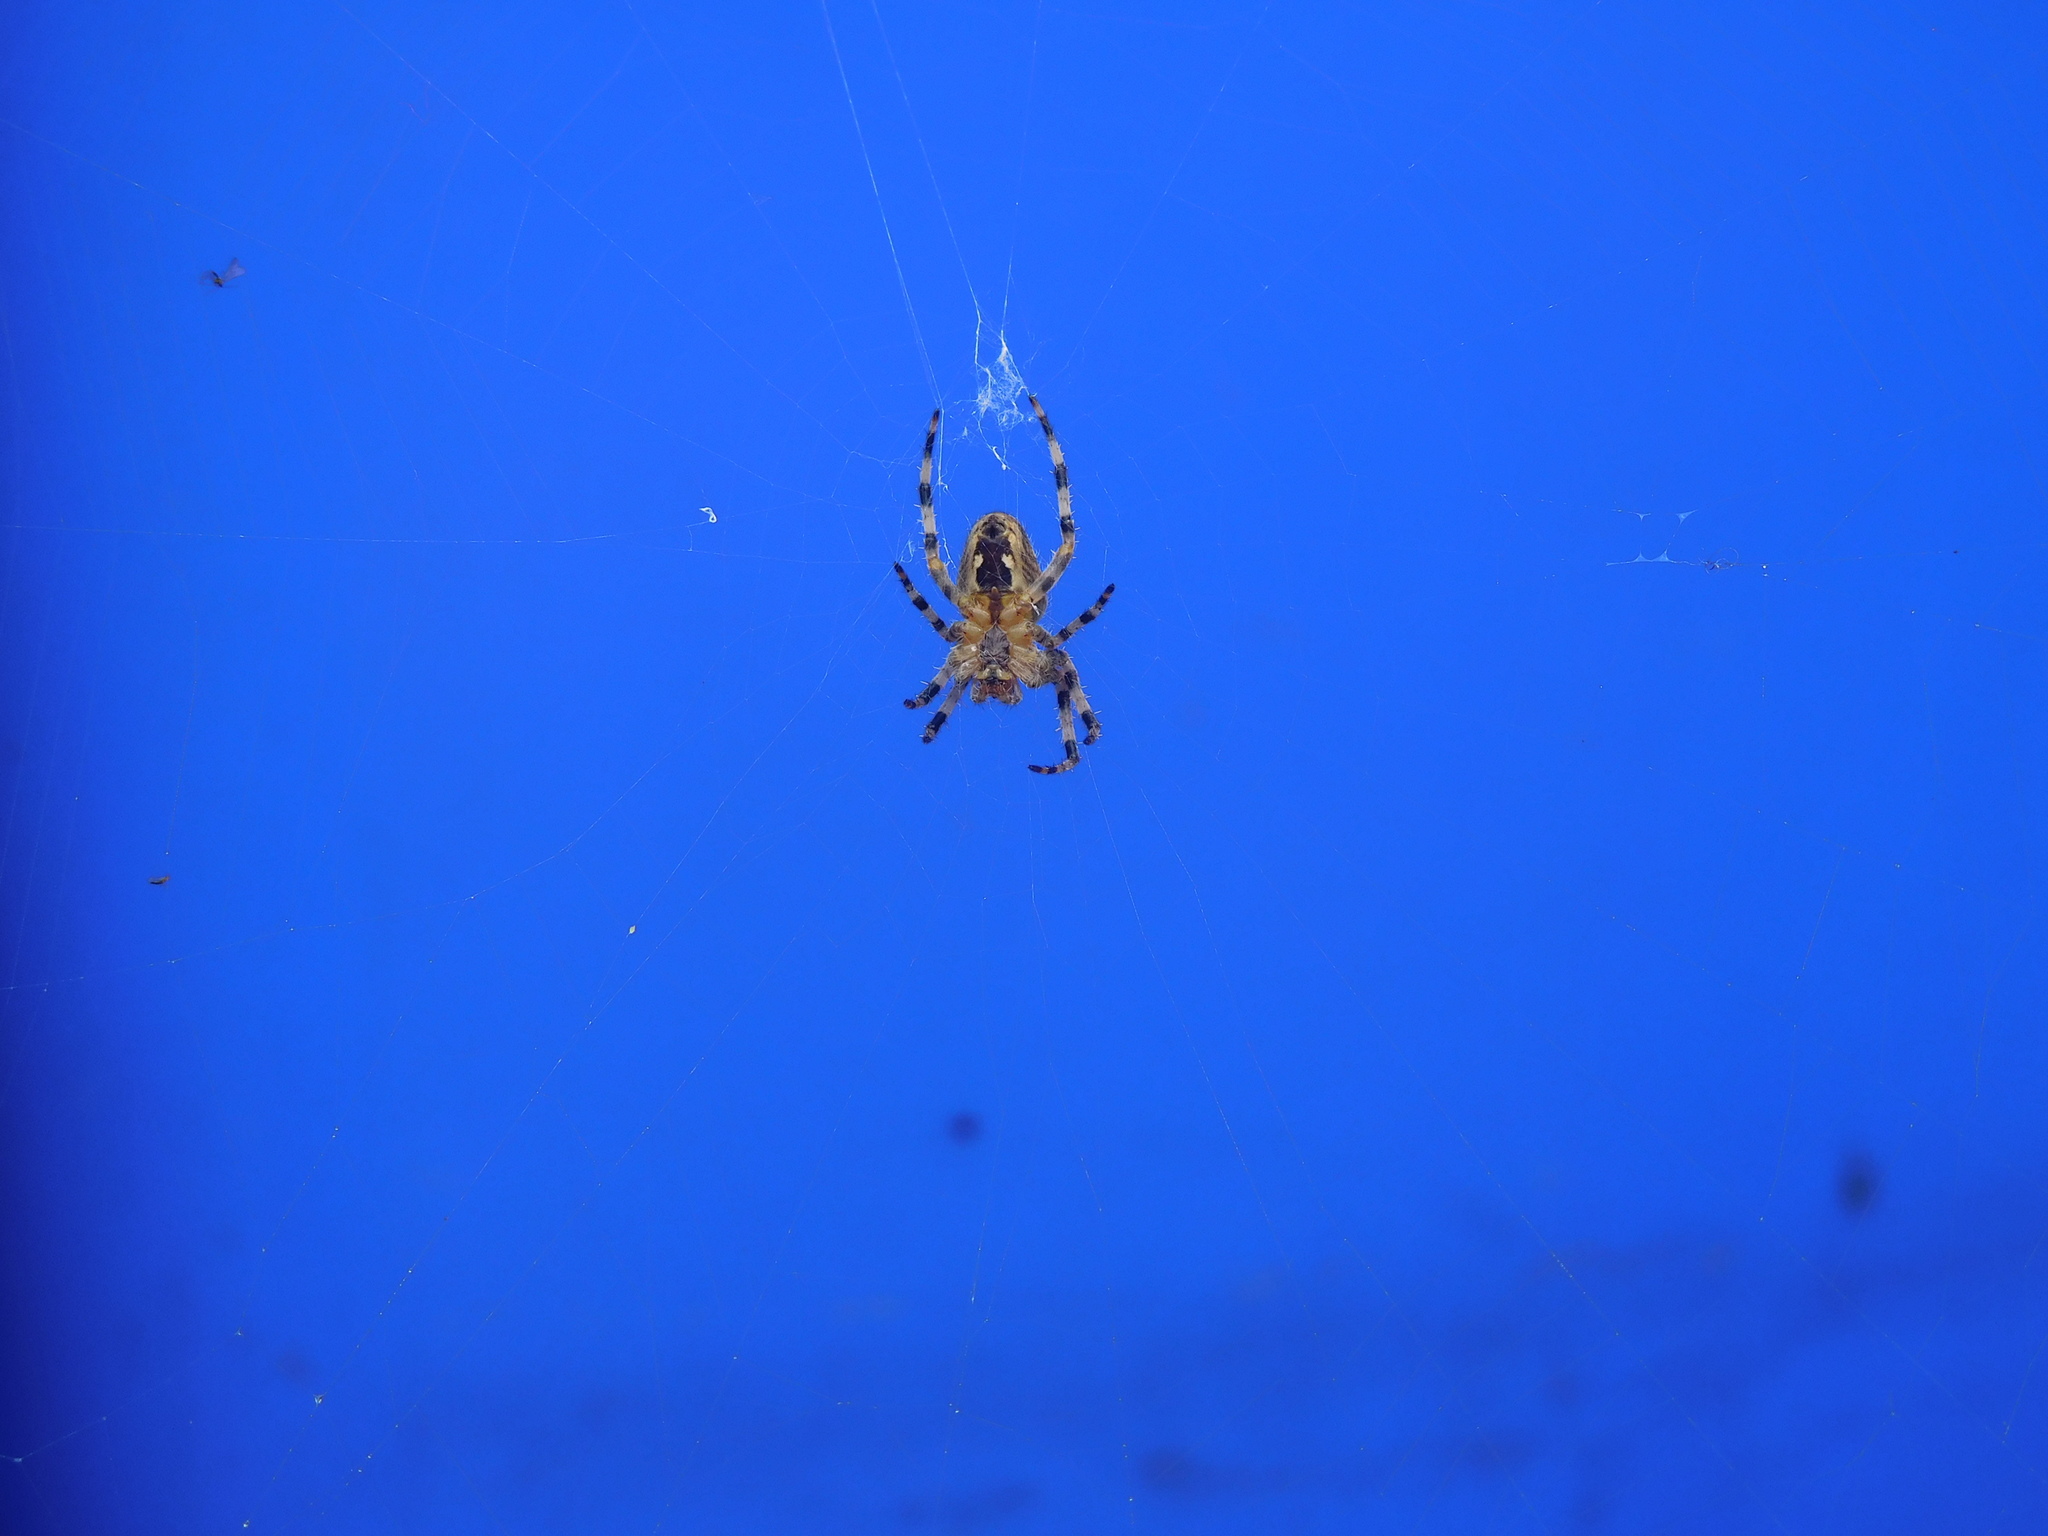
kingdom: Animalia
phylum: Arthropoda
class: Arachnida
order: Araneae
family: Araneidae
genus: Araneus
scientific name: Araneus diadematus
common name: Cross orbweaver
